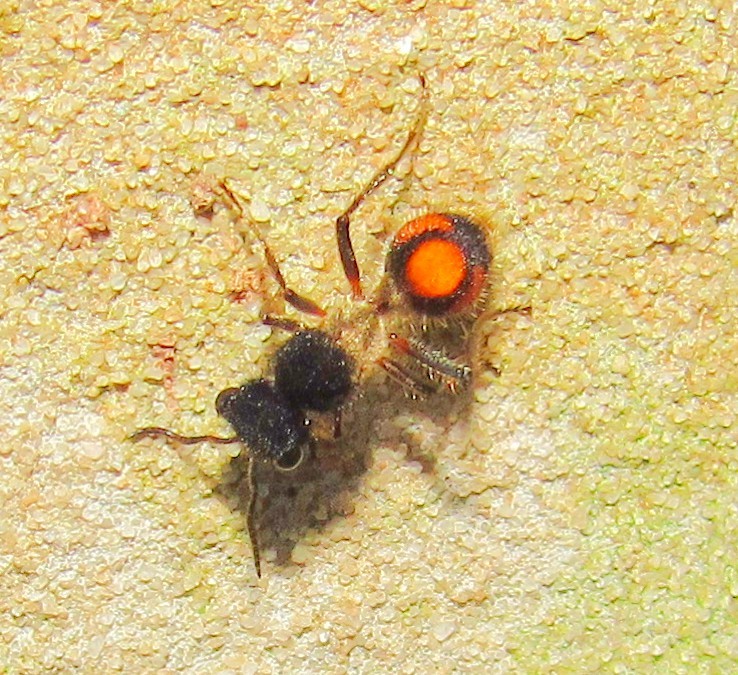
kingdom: Animalia
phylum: Arthropoda
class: Insecta
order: Hymenoptera
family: Mutillidae
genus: Lophomutilla
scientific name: Lophomutilla prionophora
